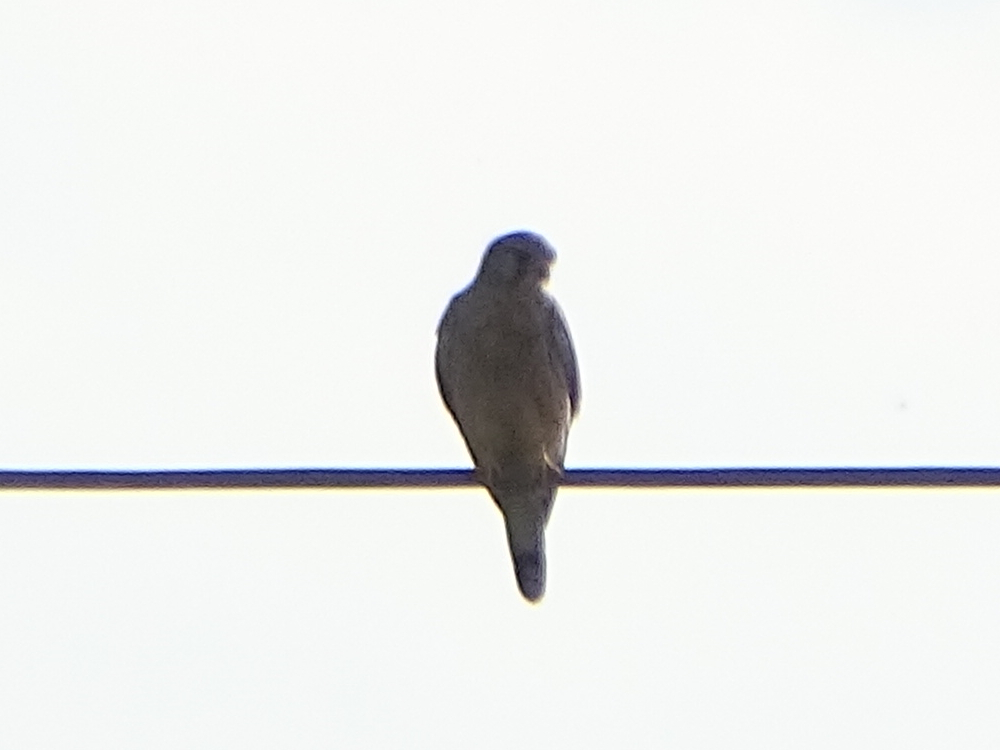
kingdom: Animalia
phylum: Chordata
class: Aves
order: Falconiformes
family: Falconidae
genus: Falco
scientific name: Falco tinnunculus
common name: Common kestrel
